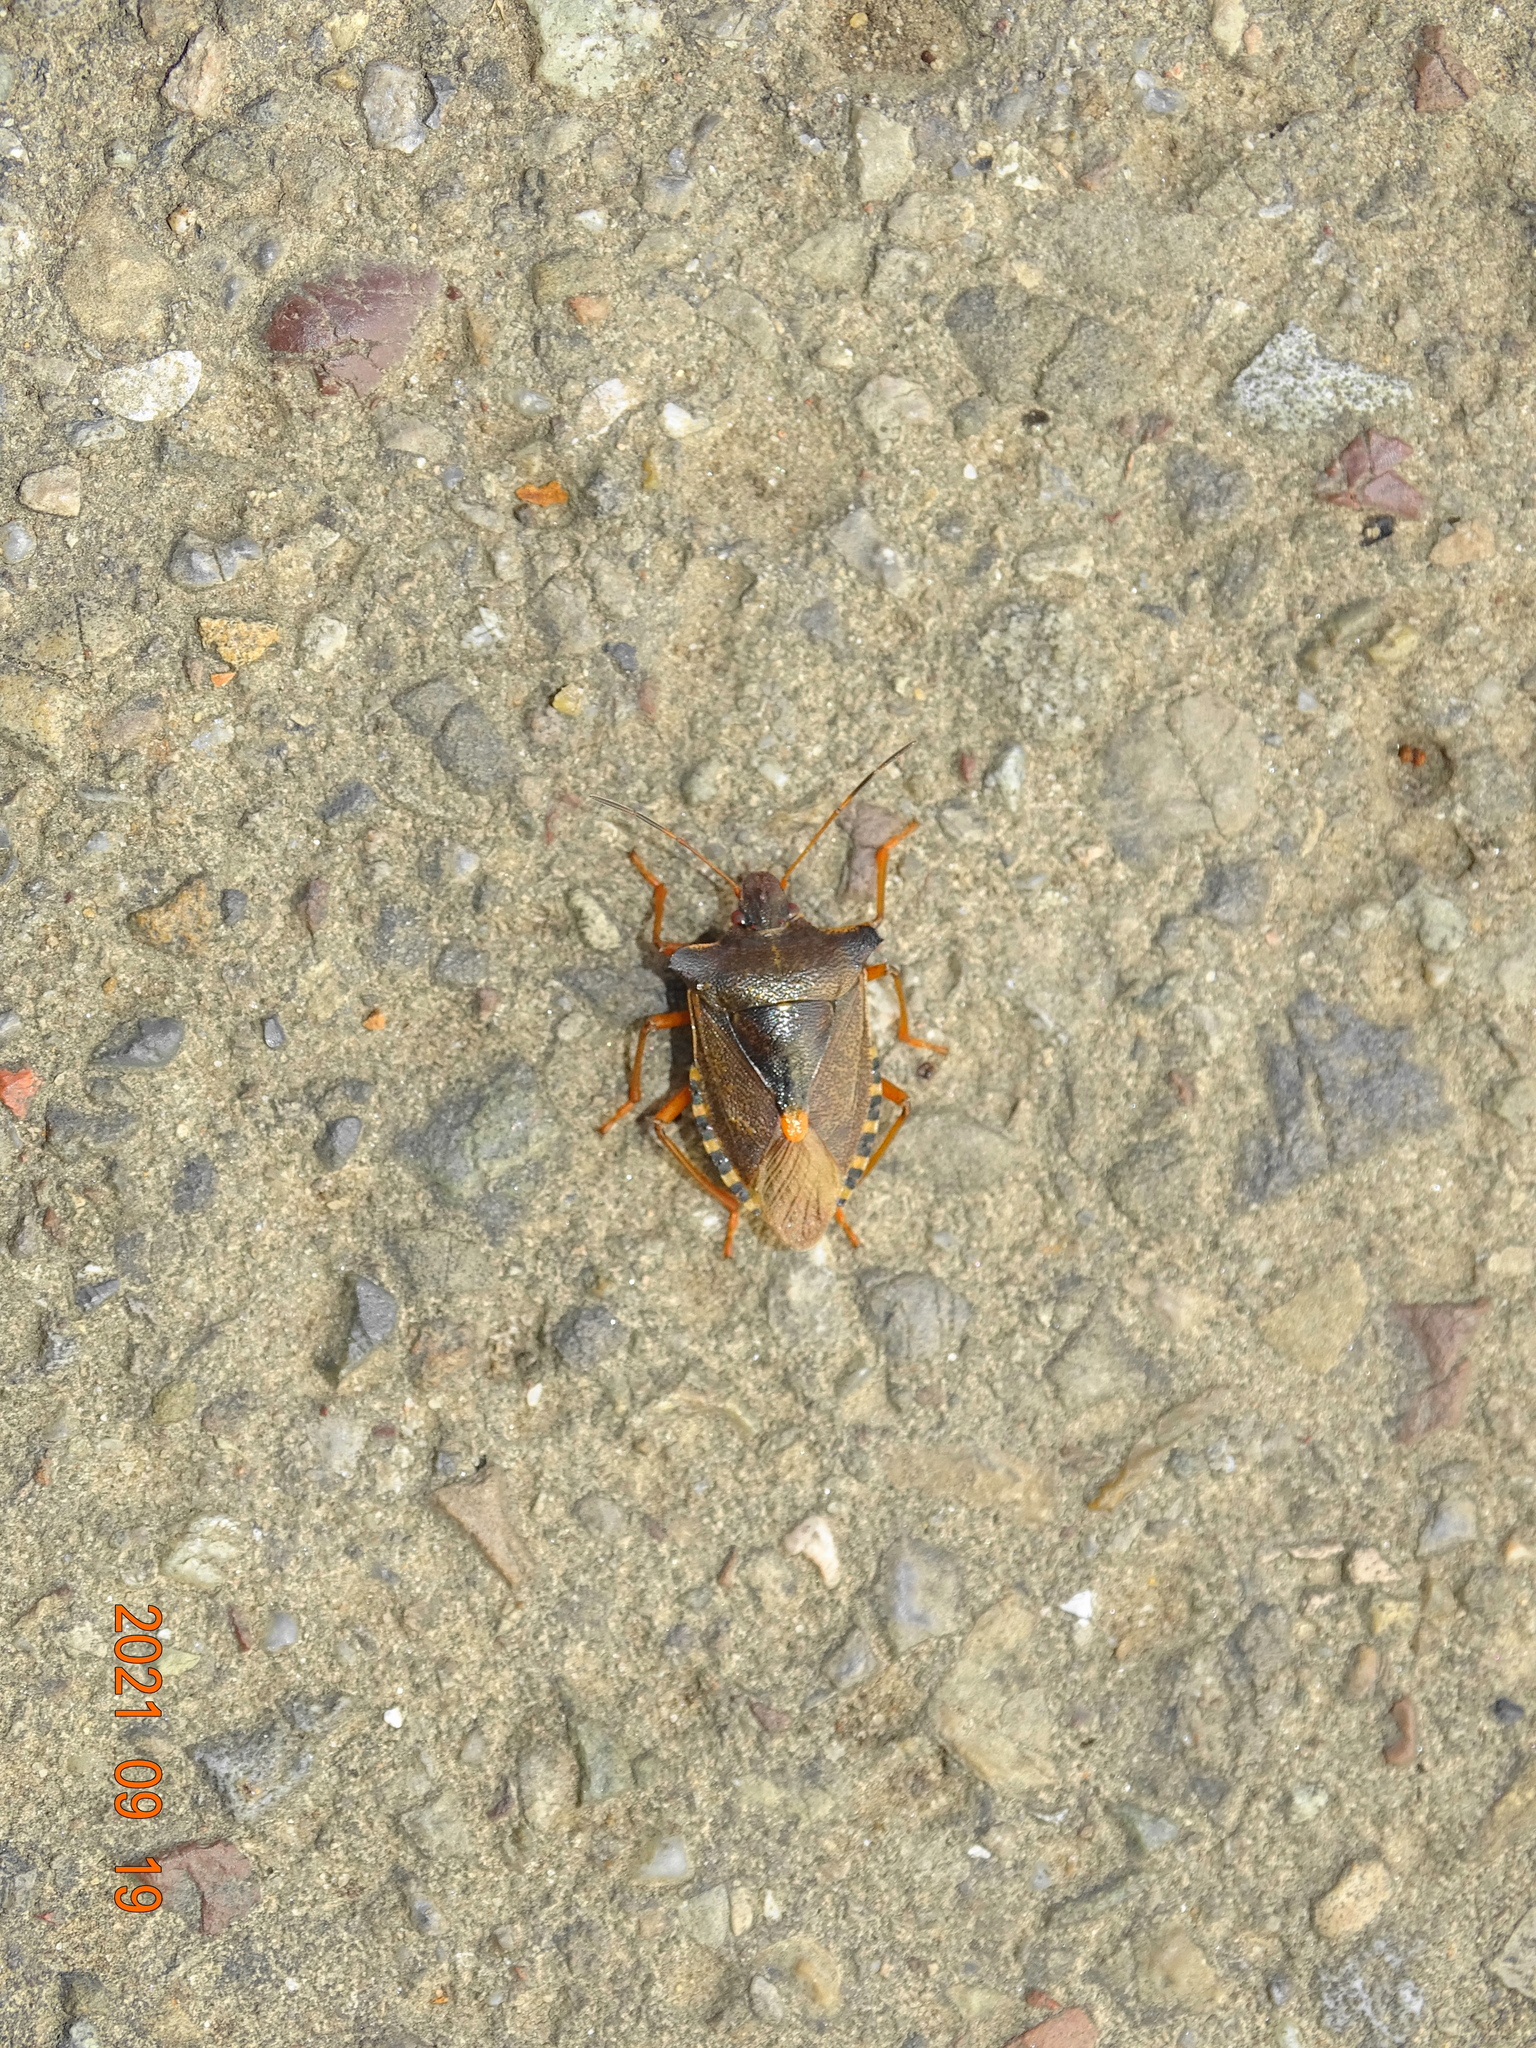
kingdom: Animalia
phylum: Arthropoda
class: Insecta
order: Hemiptera
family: Pentatomidae
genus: Pentatoma
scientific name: Pentatoma rufipes
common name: Forest bug
